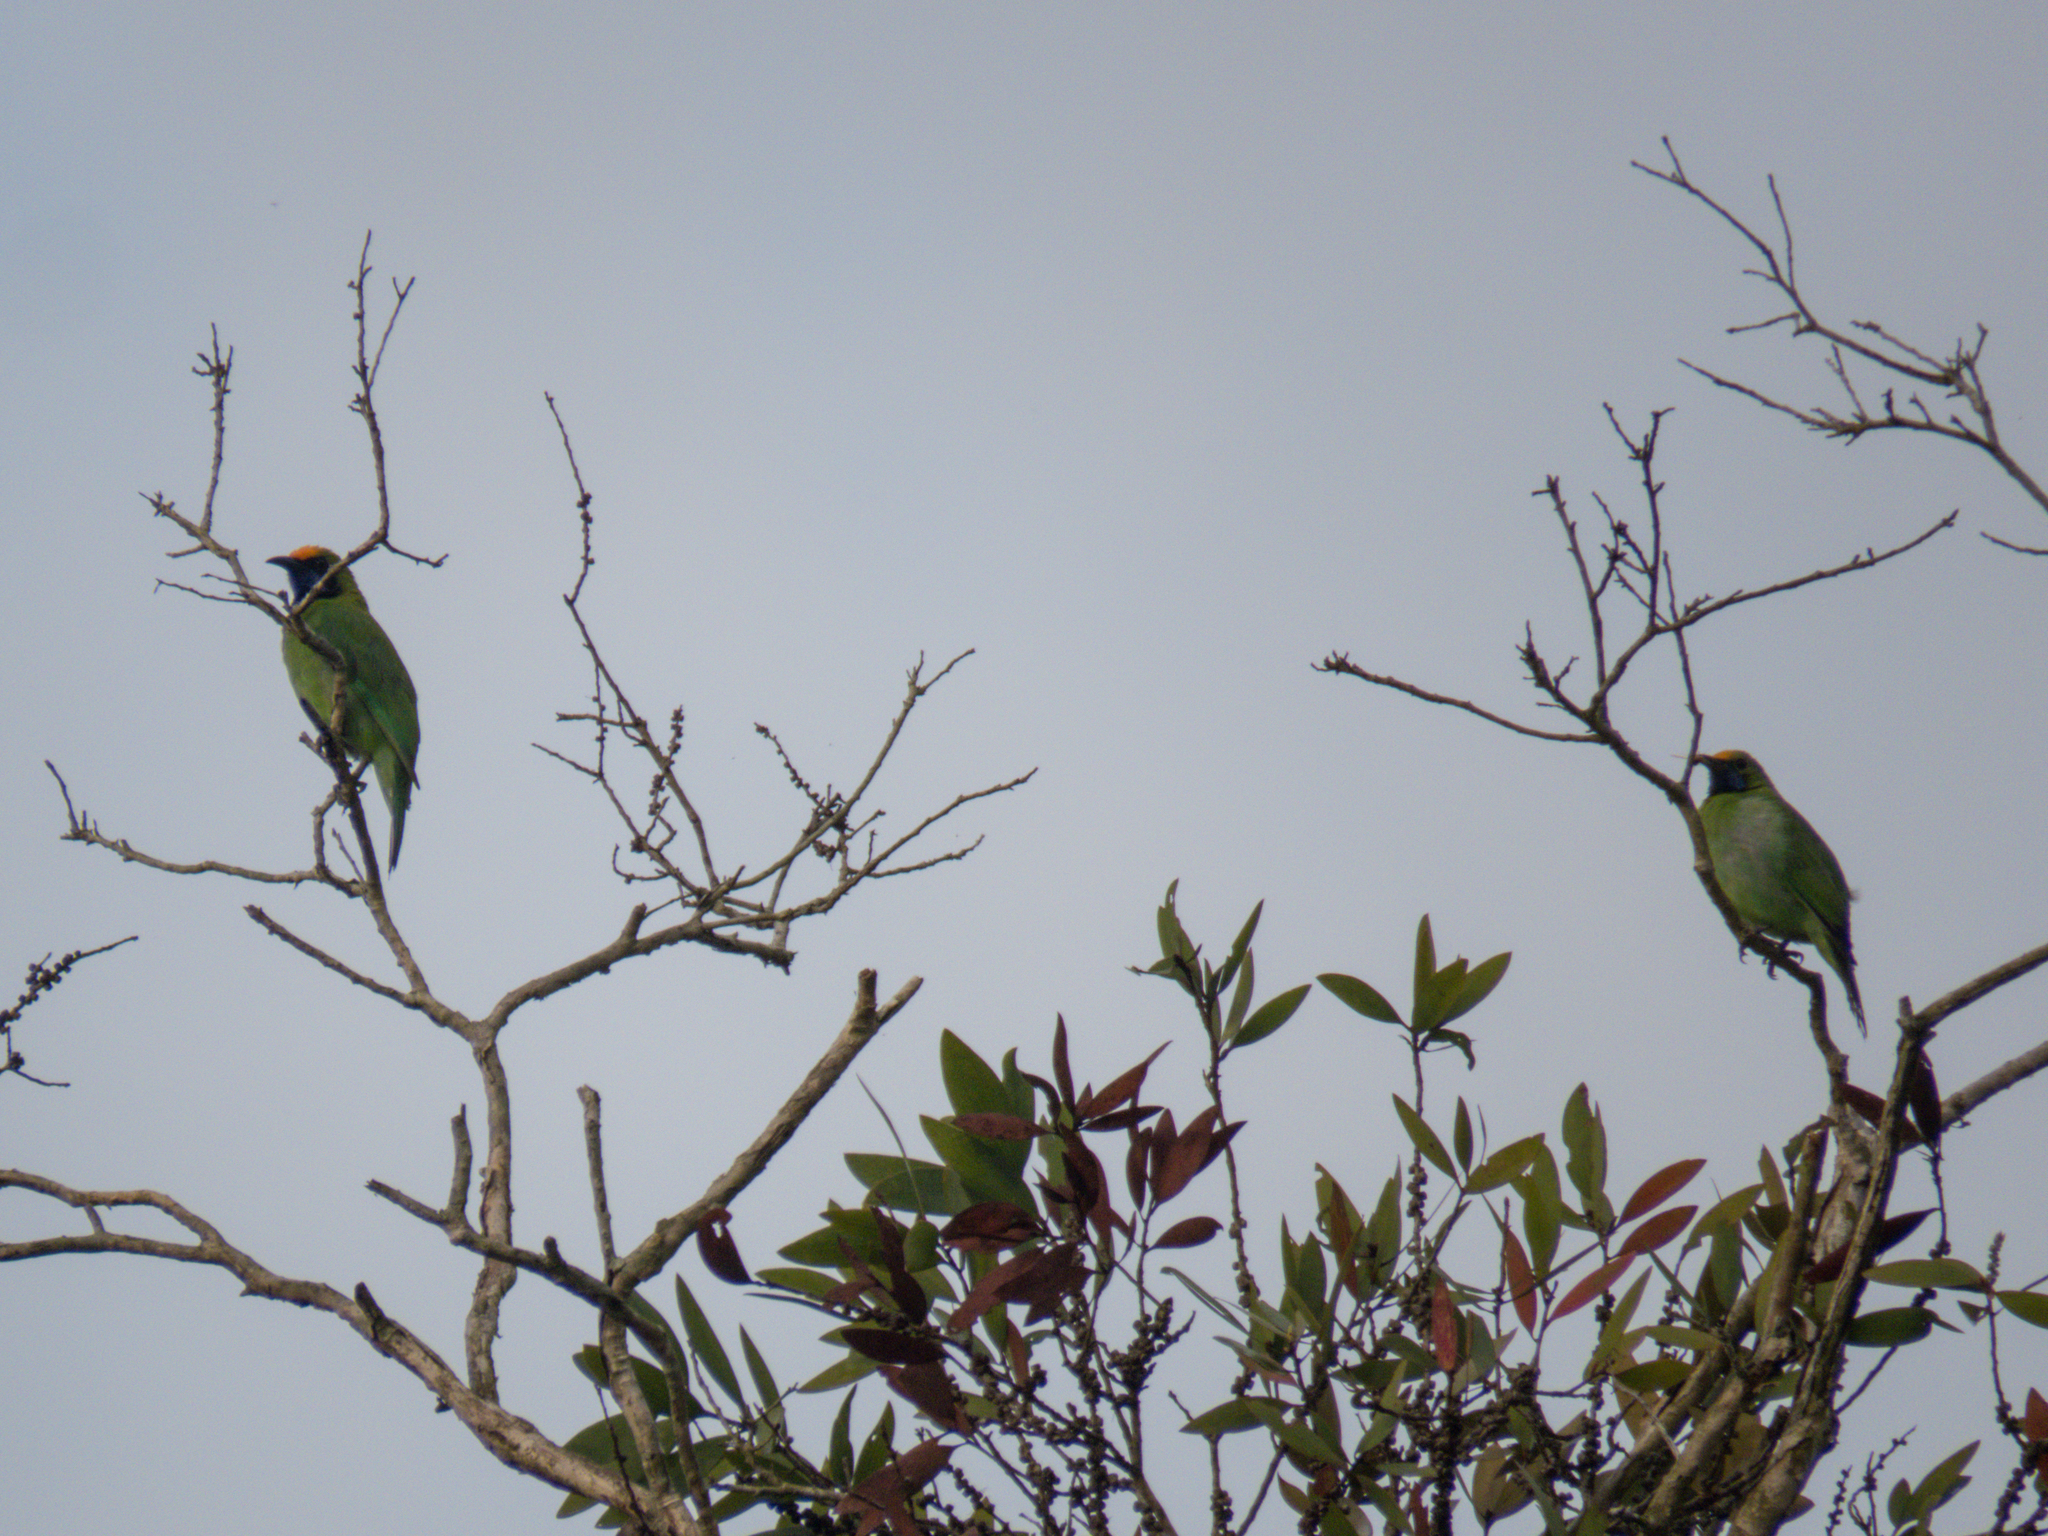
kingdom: Animalia
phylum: Chordata
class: Aves
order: Passeriformes
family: Chloropseidae
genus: Chloropsis
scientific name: Chloropsis aurifrons
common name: Golden-fronted leafbird
